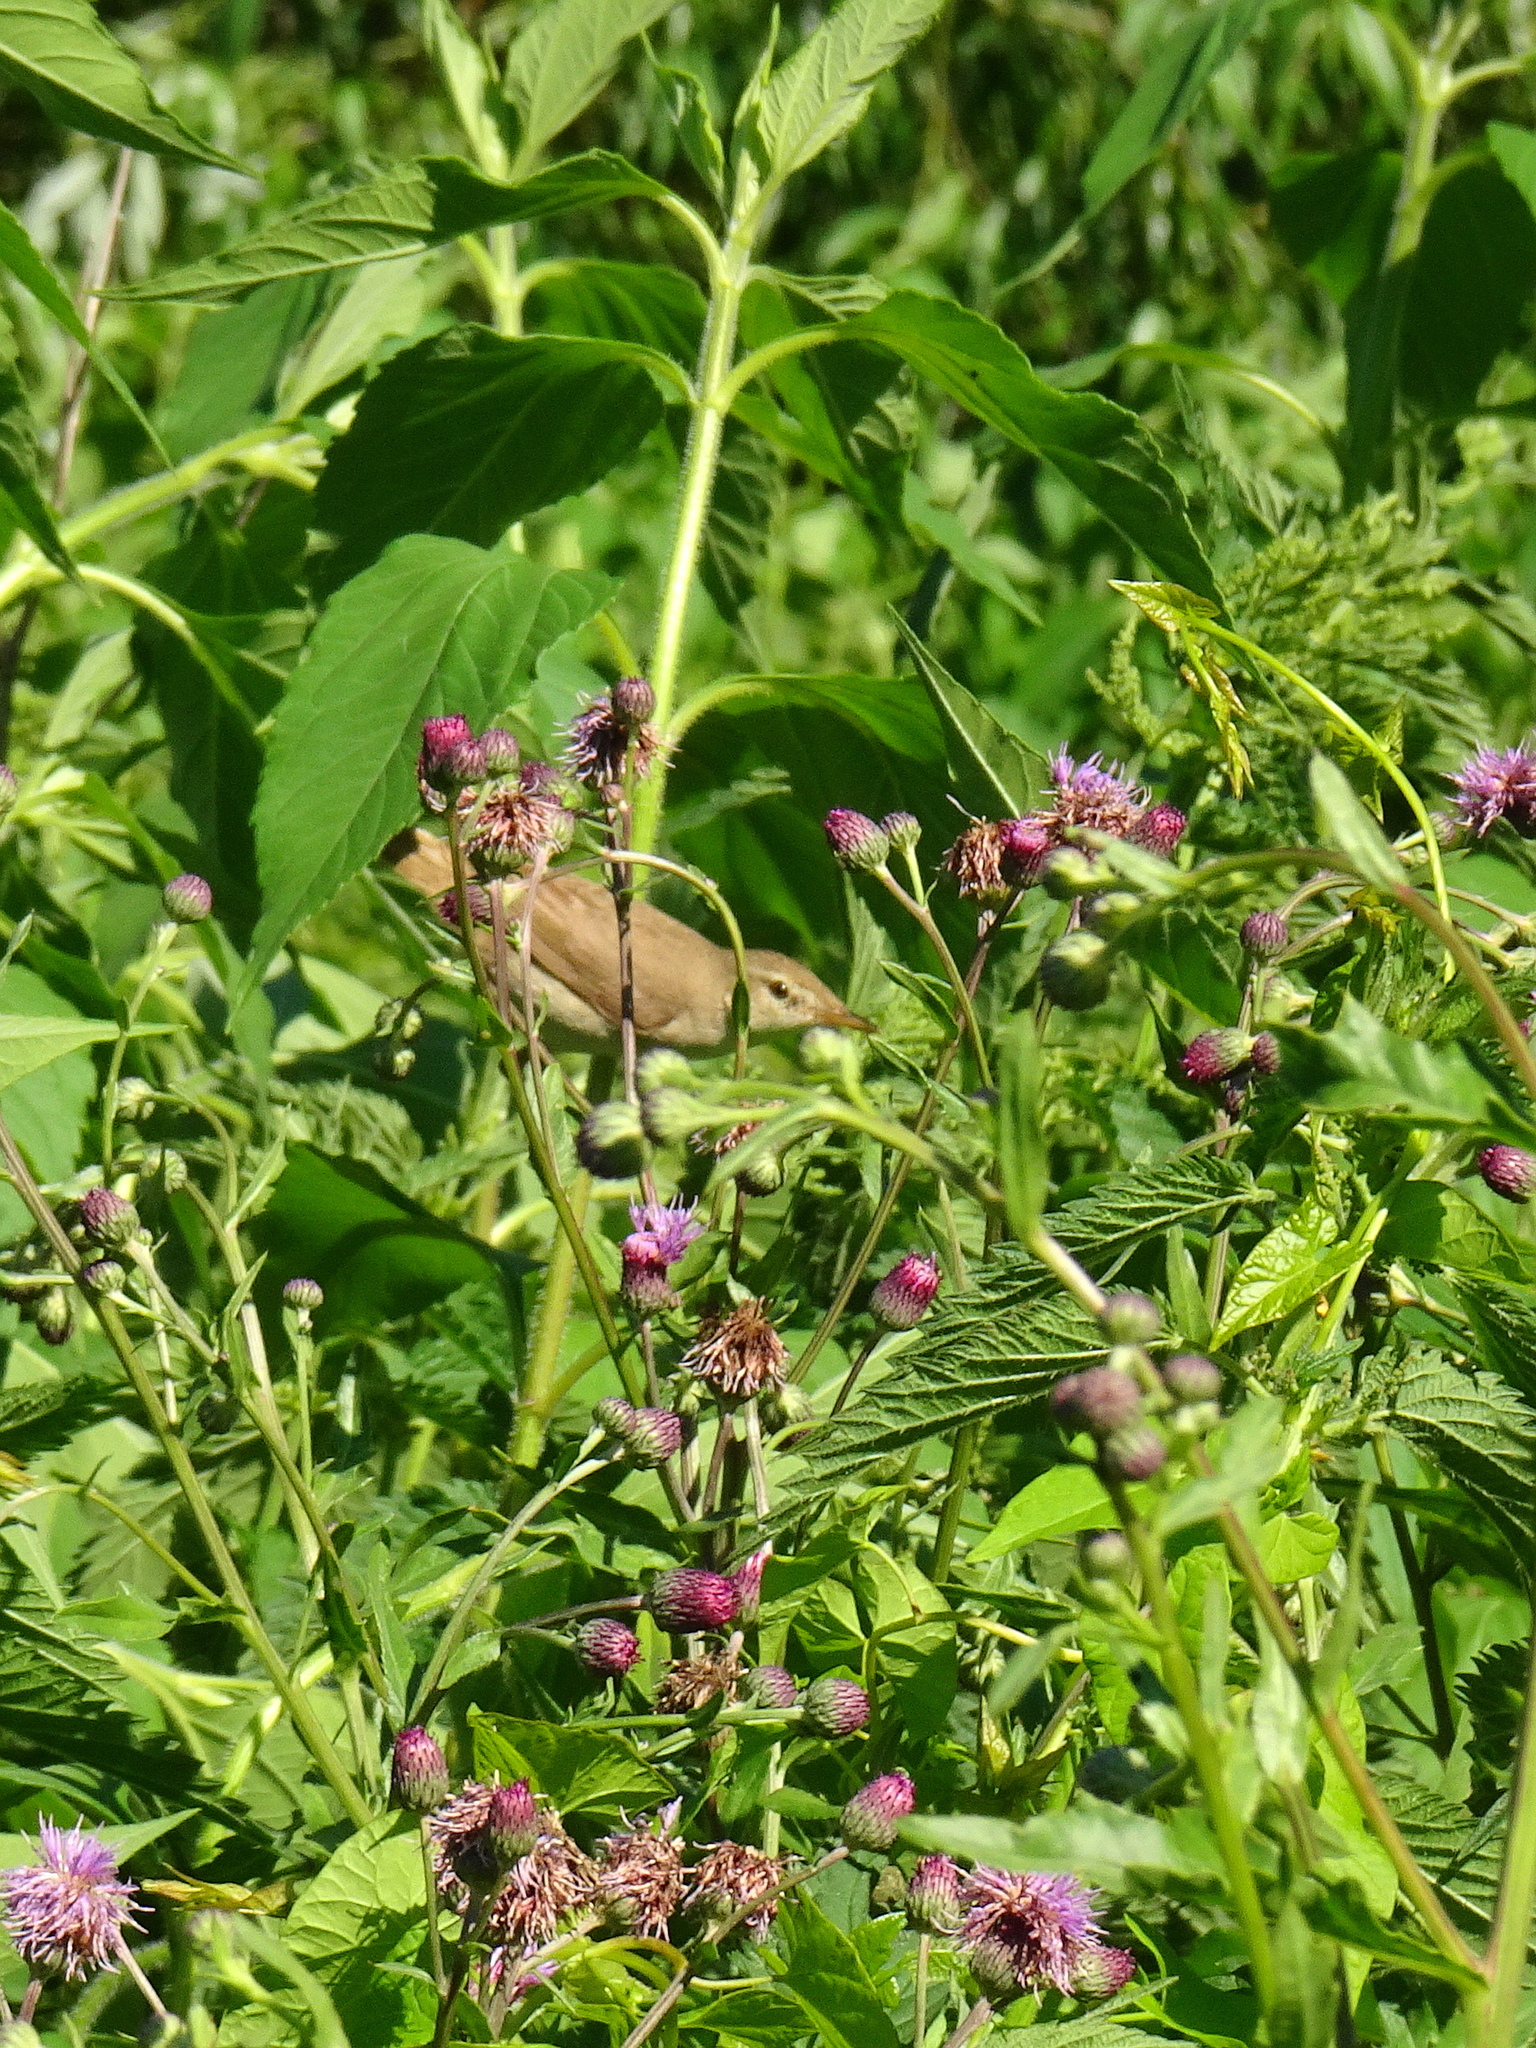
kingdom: Animalia
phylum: Chordata
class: Aves
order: Passeriformes
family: Acrocephalidae
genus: Acrocephalus
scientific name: Acrocephalus dumetorum
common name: Blyth's reed warbler
